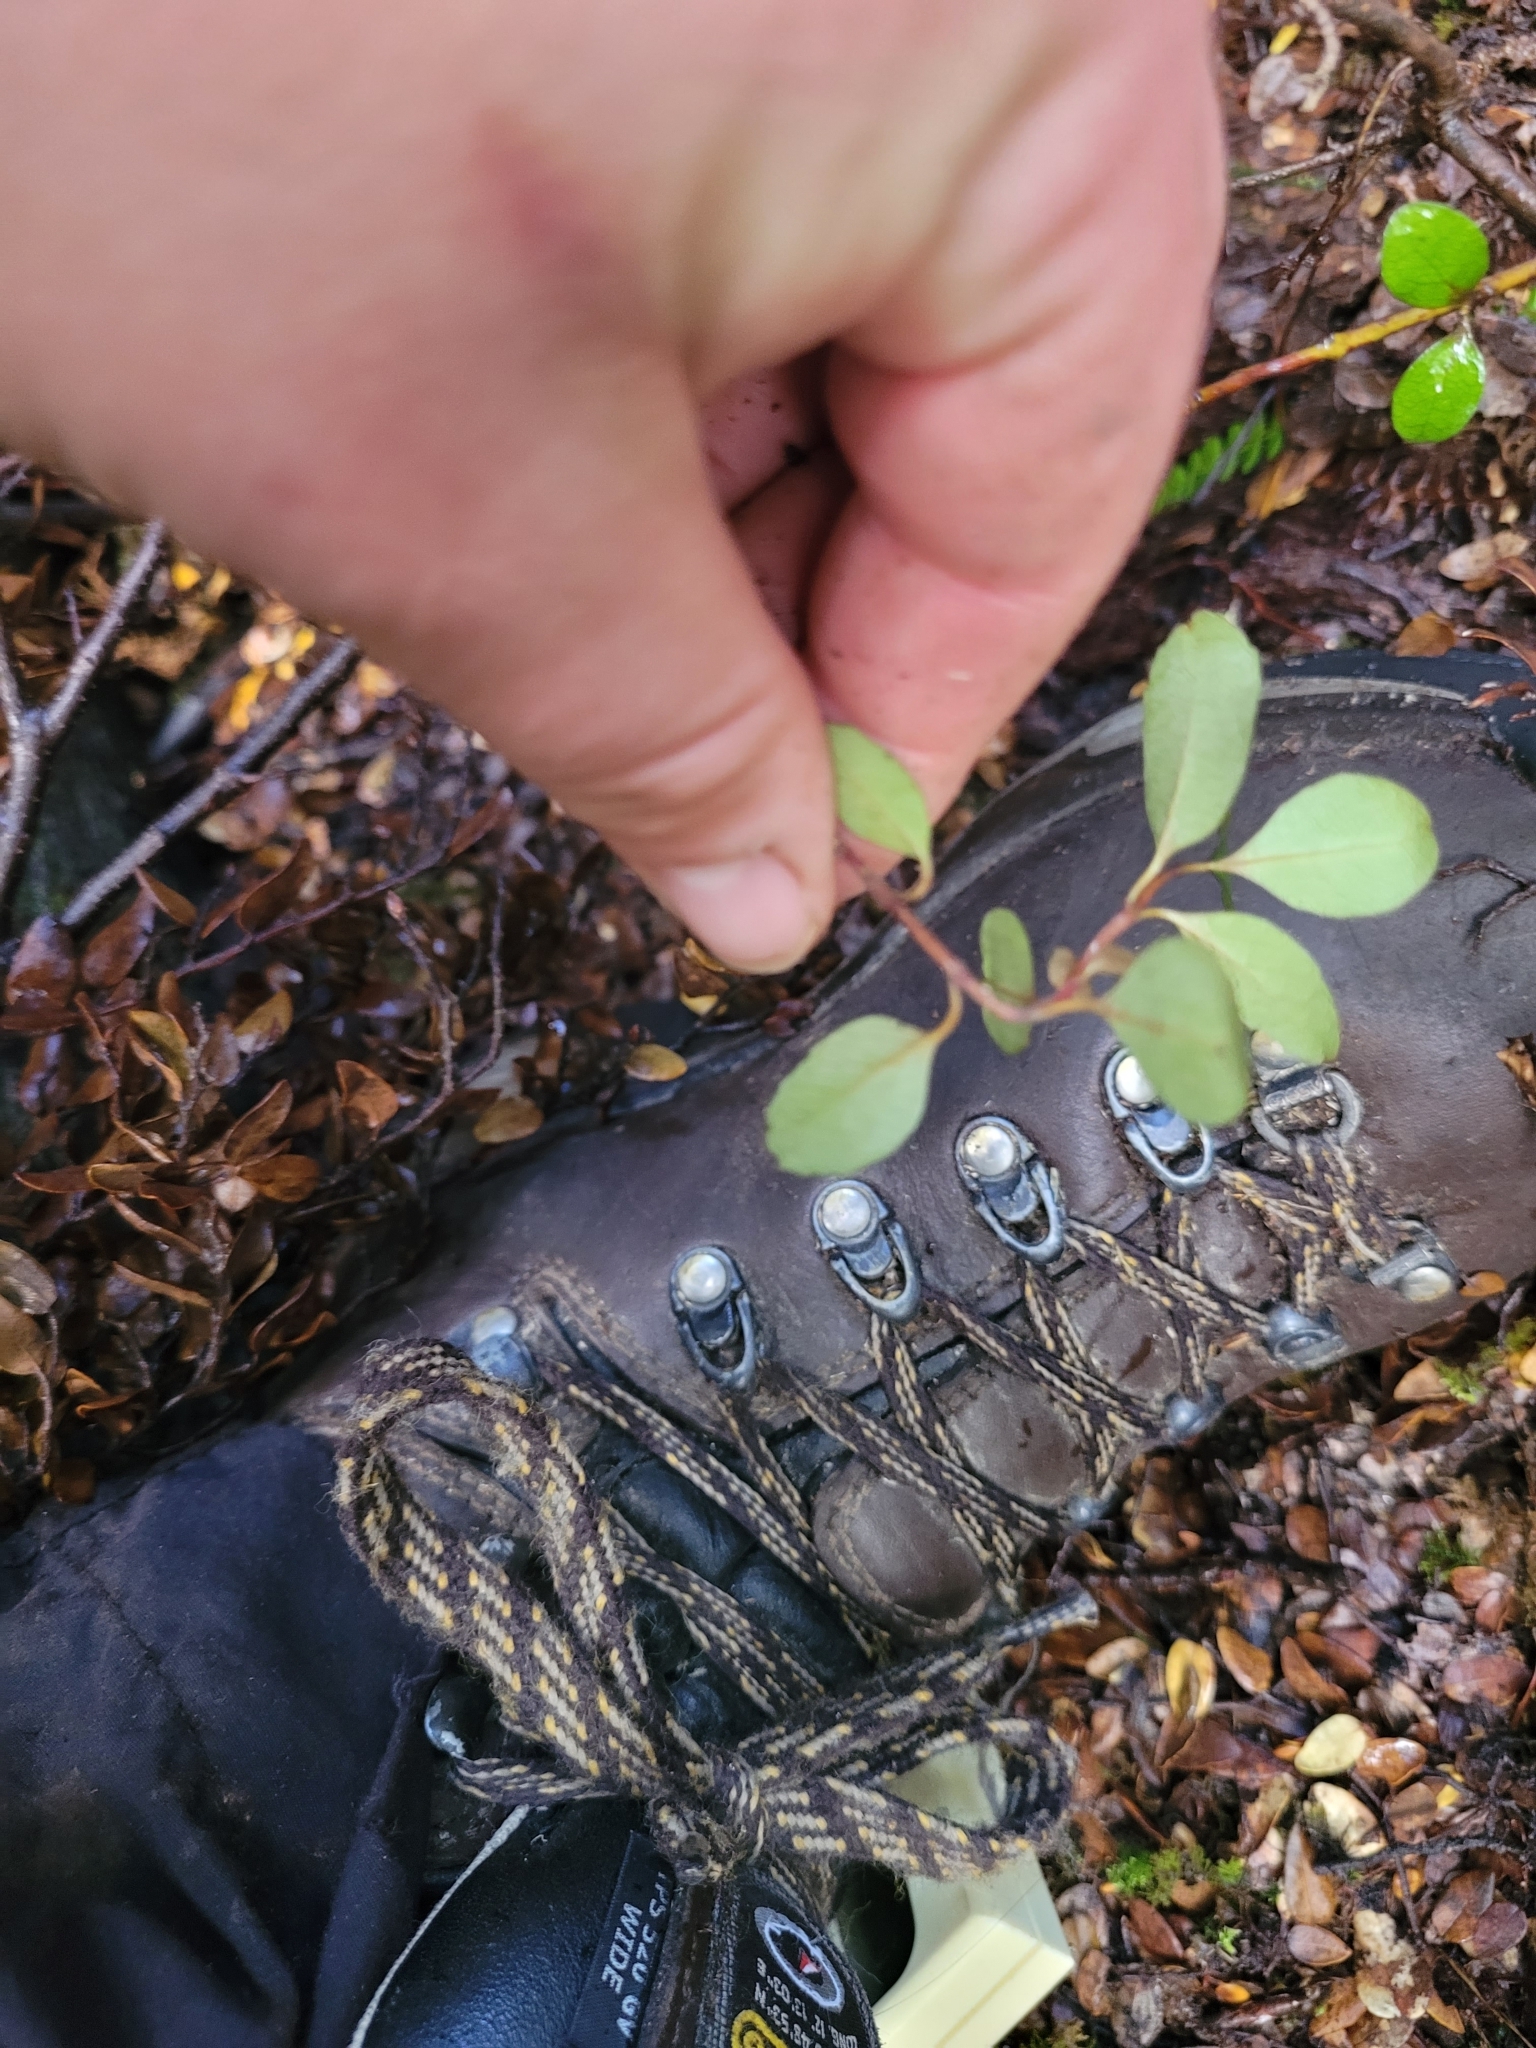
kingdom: Plantae
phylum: Tracheophyta
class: Magnoliopsida
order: Oxalidales
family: Elaeocarpaceae
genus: Aristotelia
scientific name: Aristotelia fruticosa
